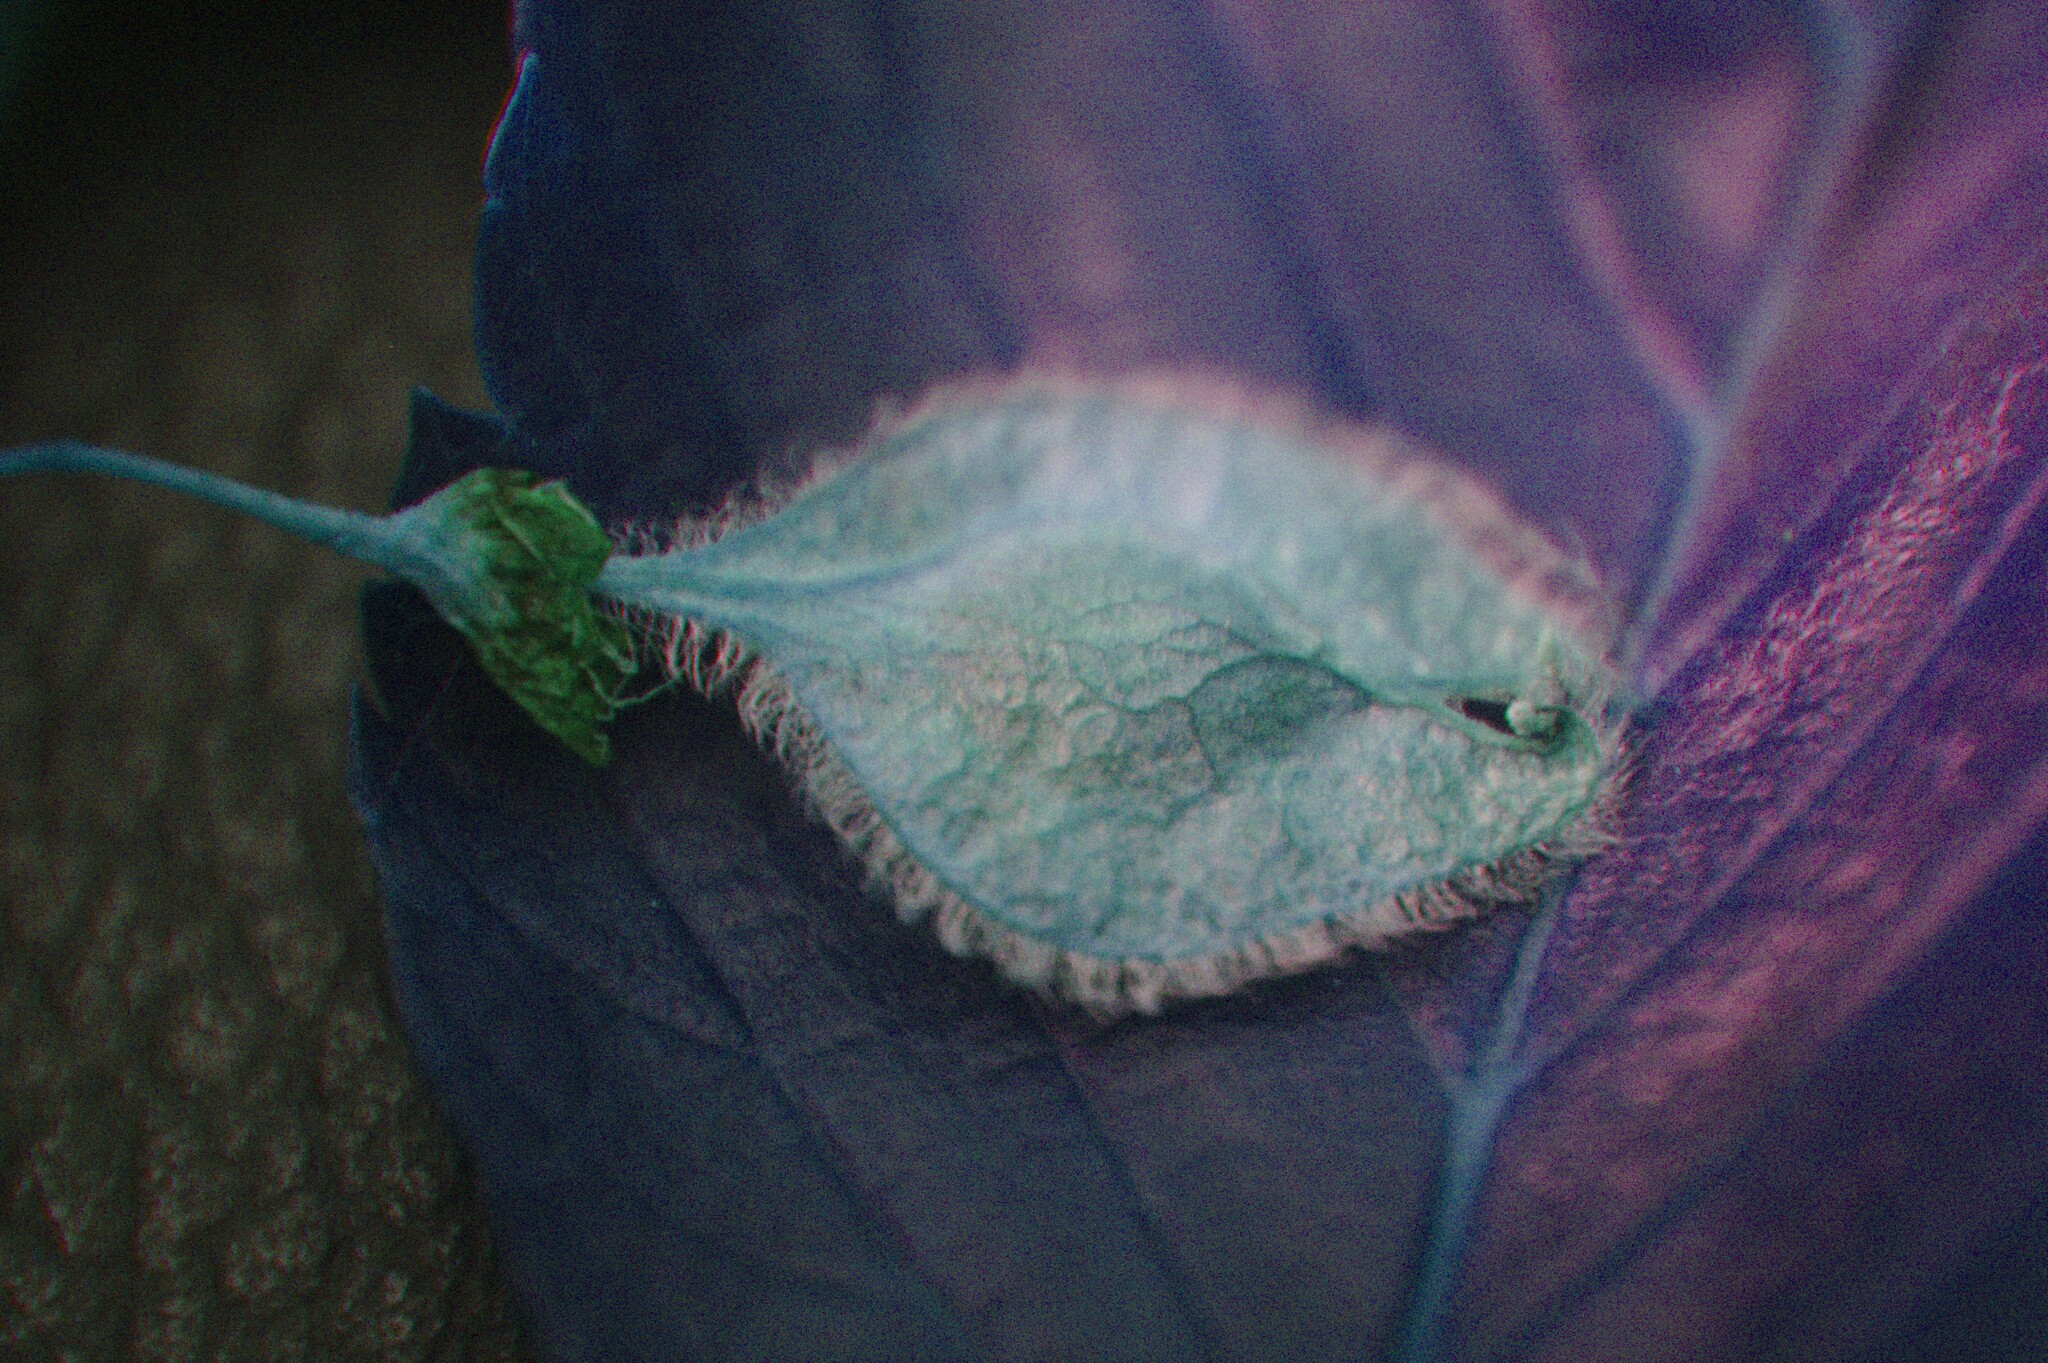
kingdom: Plantae
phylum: Tracheophyta
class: Magnoliopsida
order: Rosales
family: Ulmaceae
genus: Ulmus
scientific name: Ulmus americana
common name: American elm
